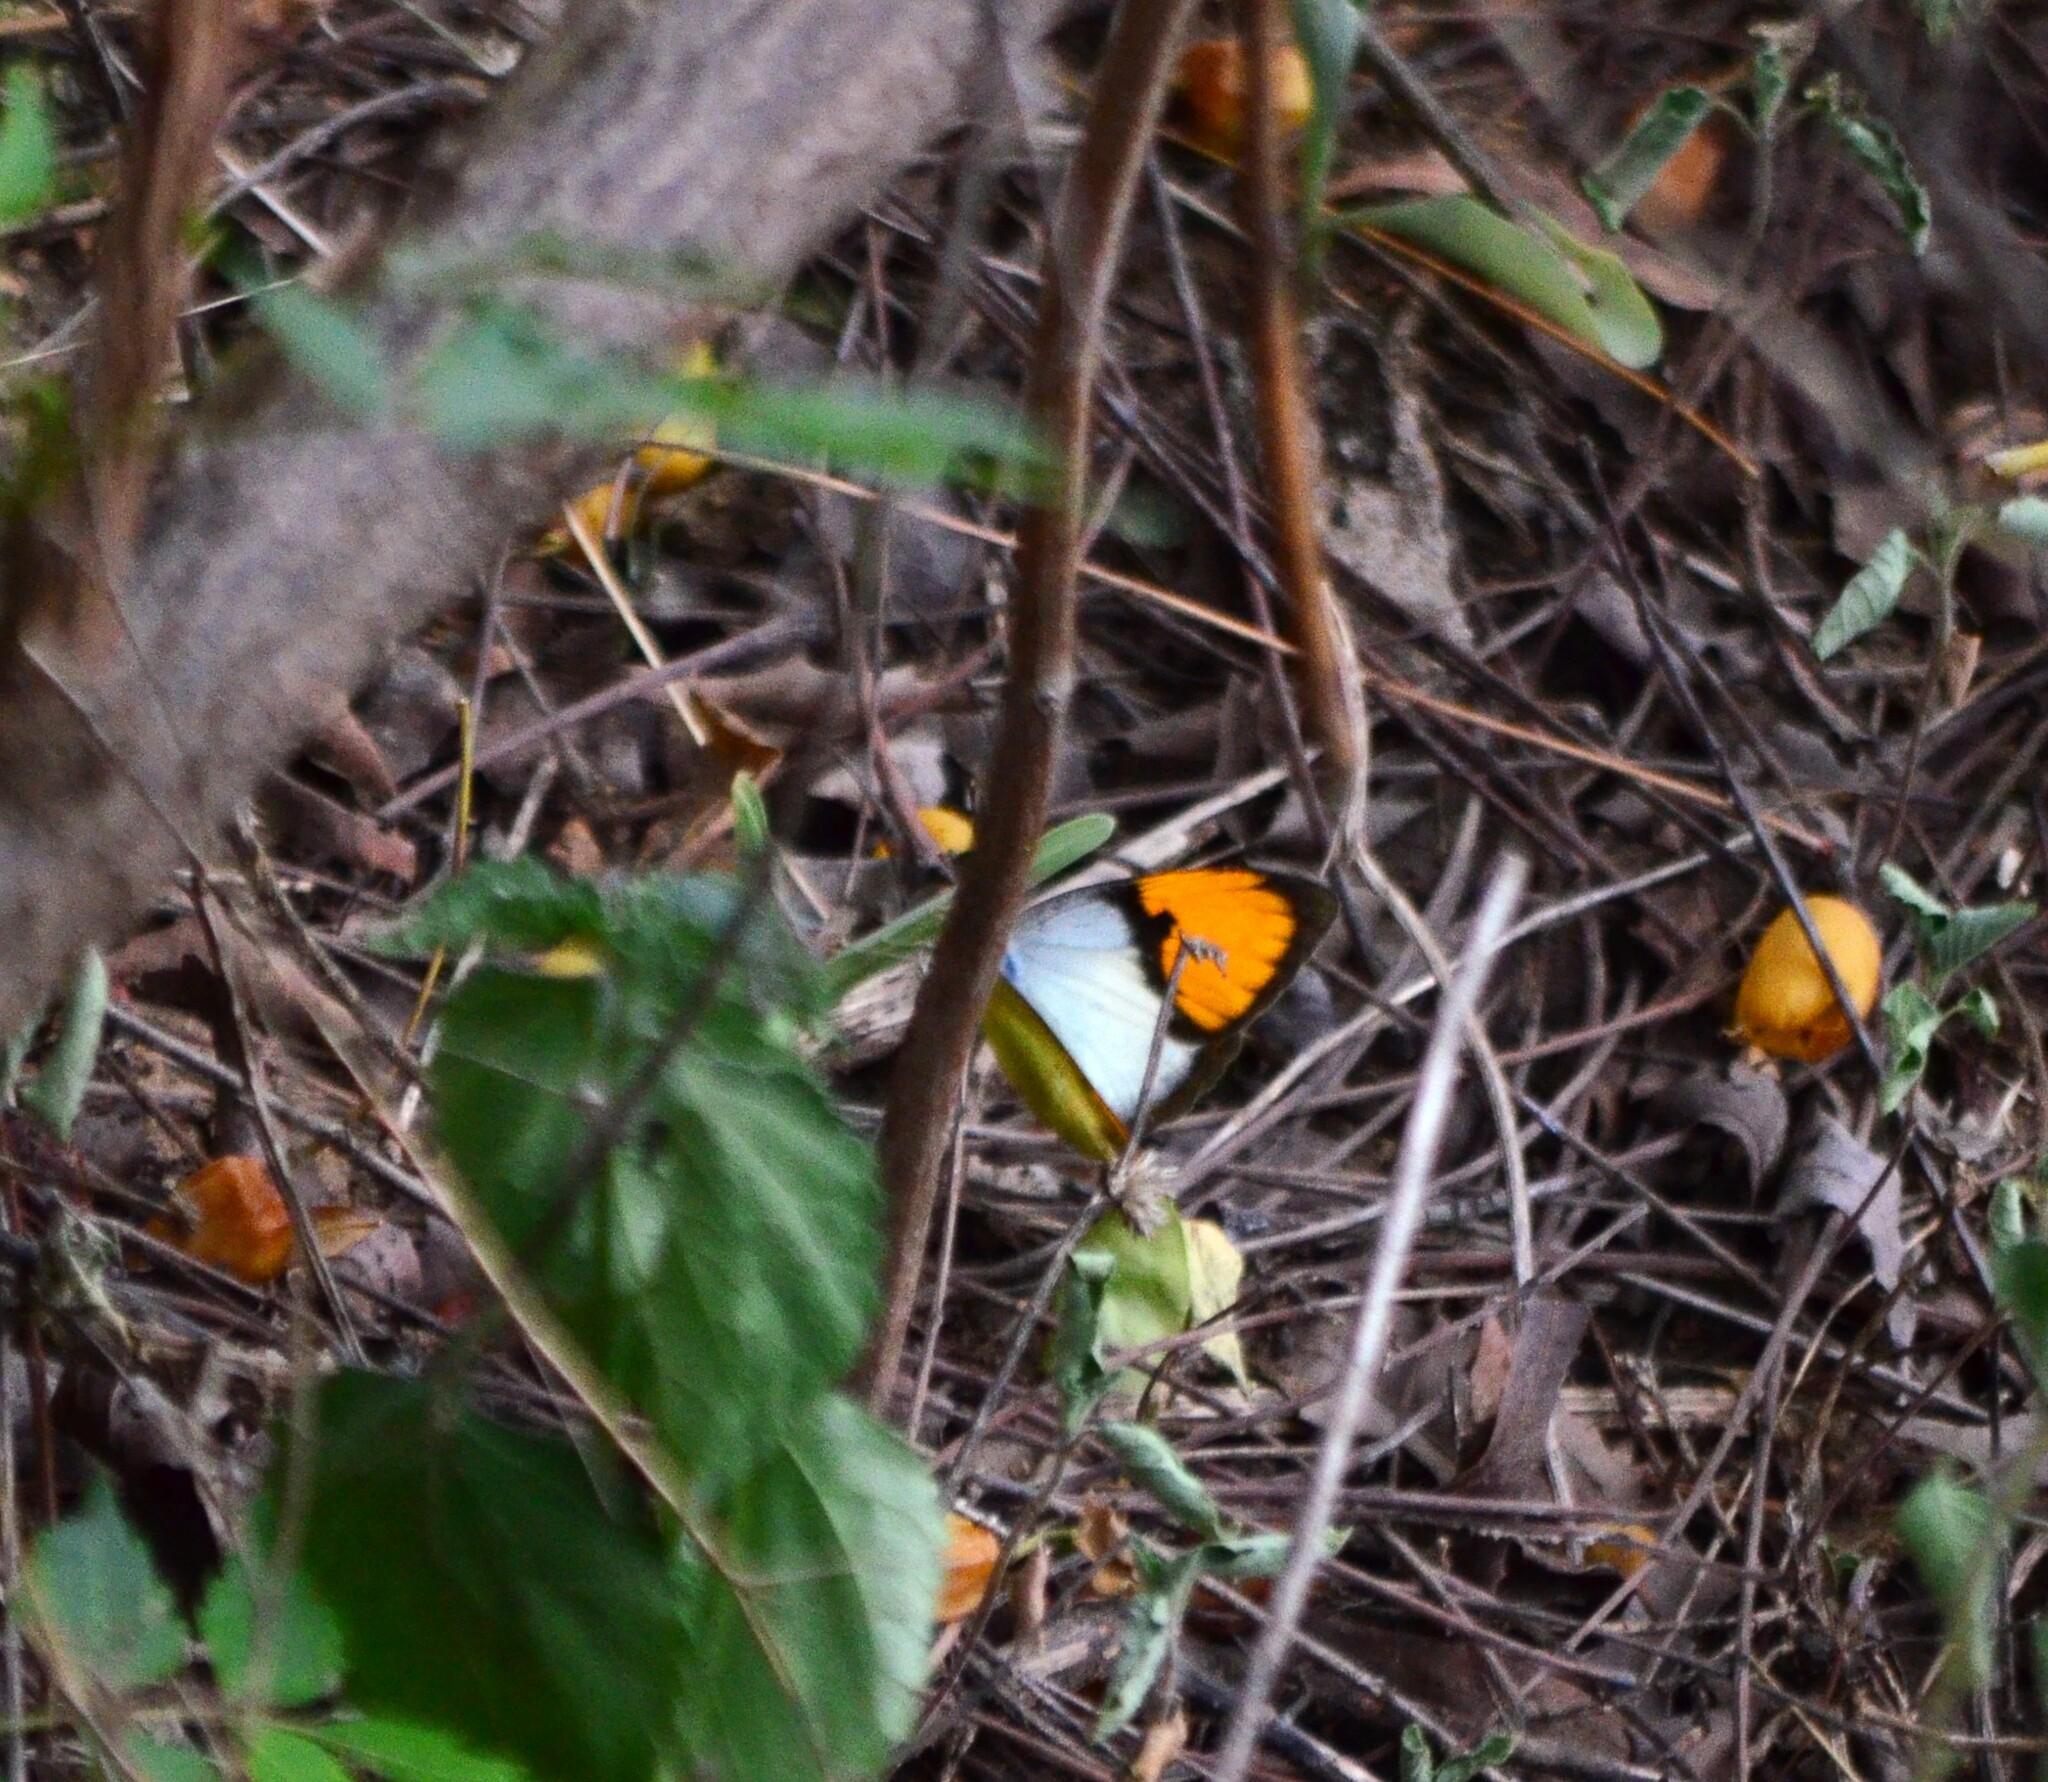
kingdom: Animalia
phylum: Arthropoda
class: Insecta
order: Lepidoptera
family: Pieridae
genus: Ixias
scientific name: Ixias marianne
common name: White orange tip
